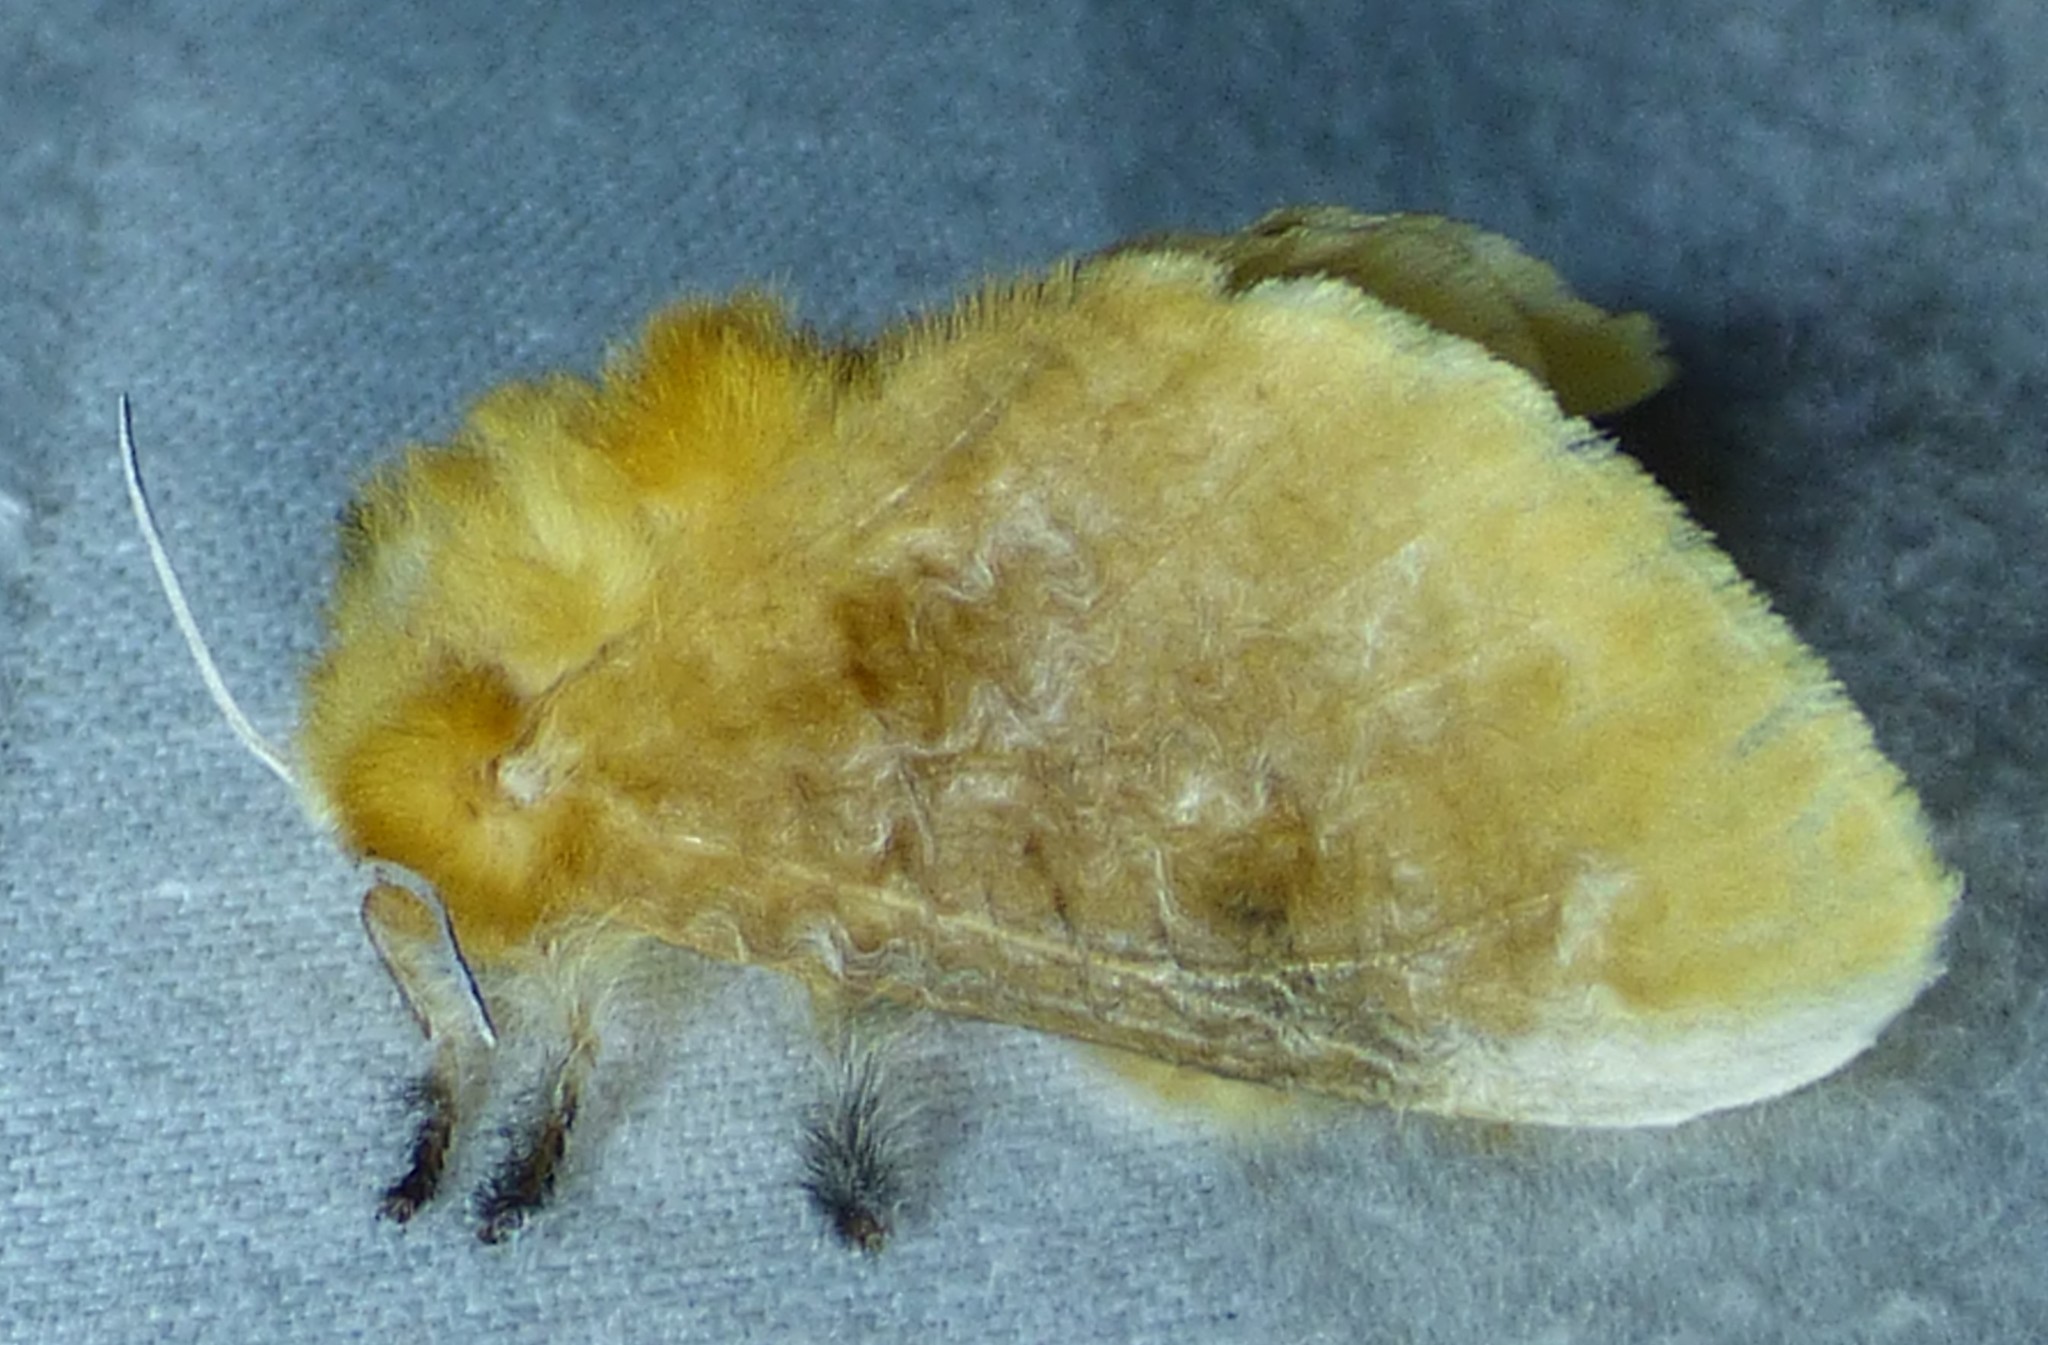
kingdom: Animalia
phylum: Arthropoda
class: Insecta
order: Lepidoptera
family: Megalopygidae
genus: Megalopyge
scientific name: Megalopyge opercularis
